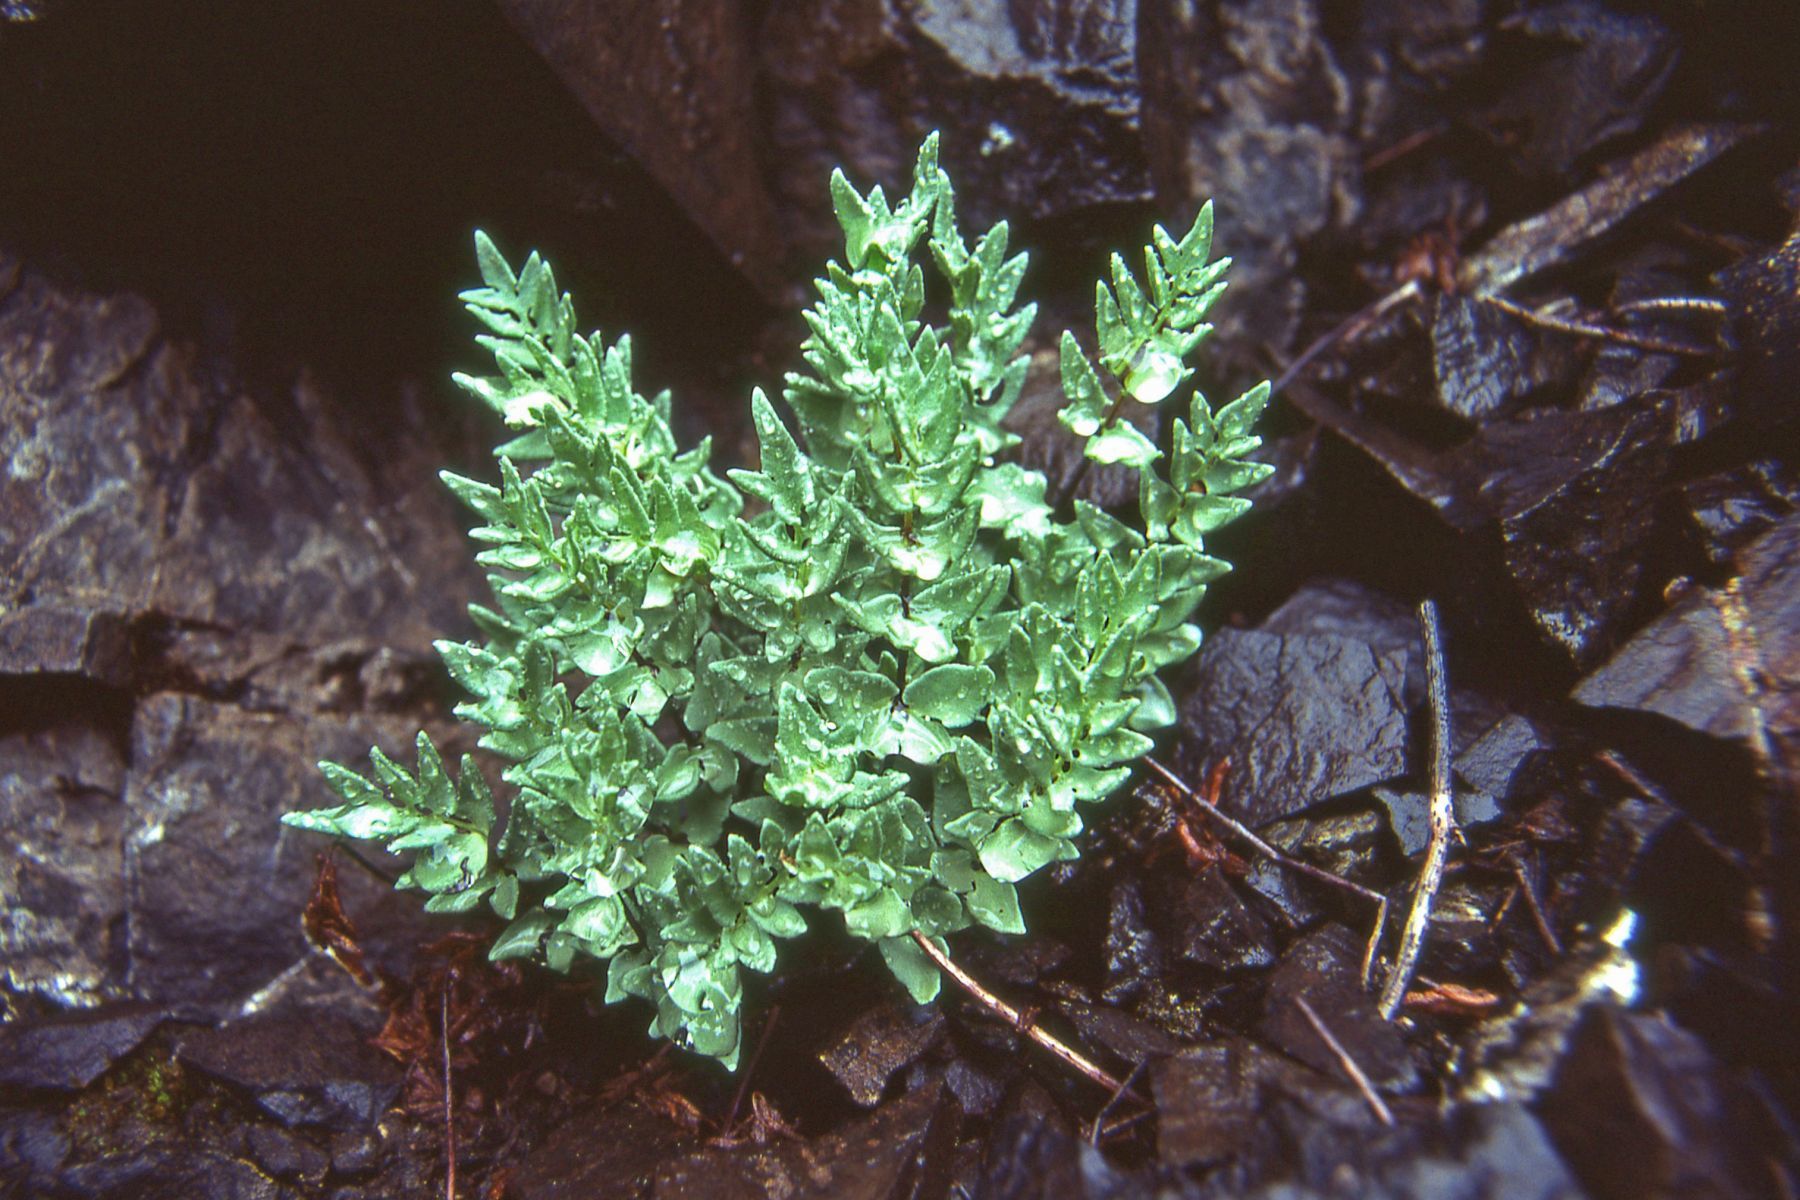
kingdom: Plantae
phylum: Tracheophyta
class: Polypodiopsida
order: Polypodiales
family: Pteridaceae
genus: Pellaea
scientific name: Pellaea breweri
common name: Brewer's cliffbrake
